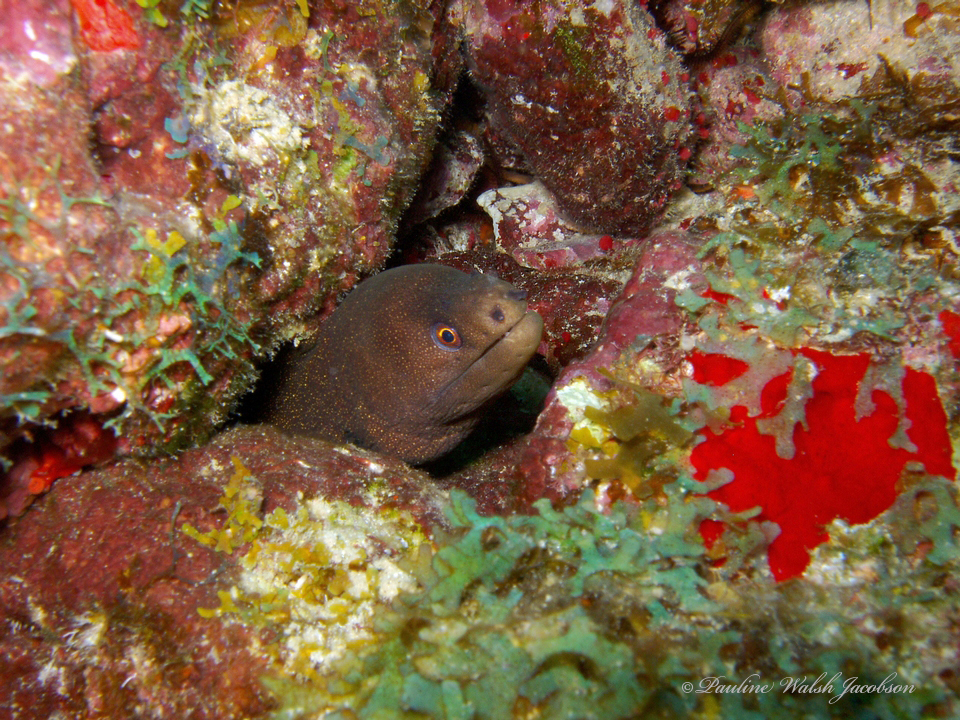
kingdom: Animalia
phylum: Chordata
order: Anguilliformes
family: Muraenidae
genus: Gymnothorax
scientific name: Gymnothorax miliaris
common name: Goldentail moray
